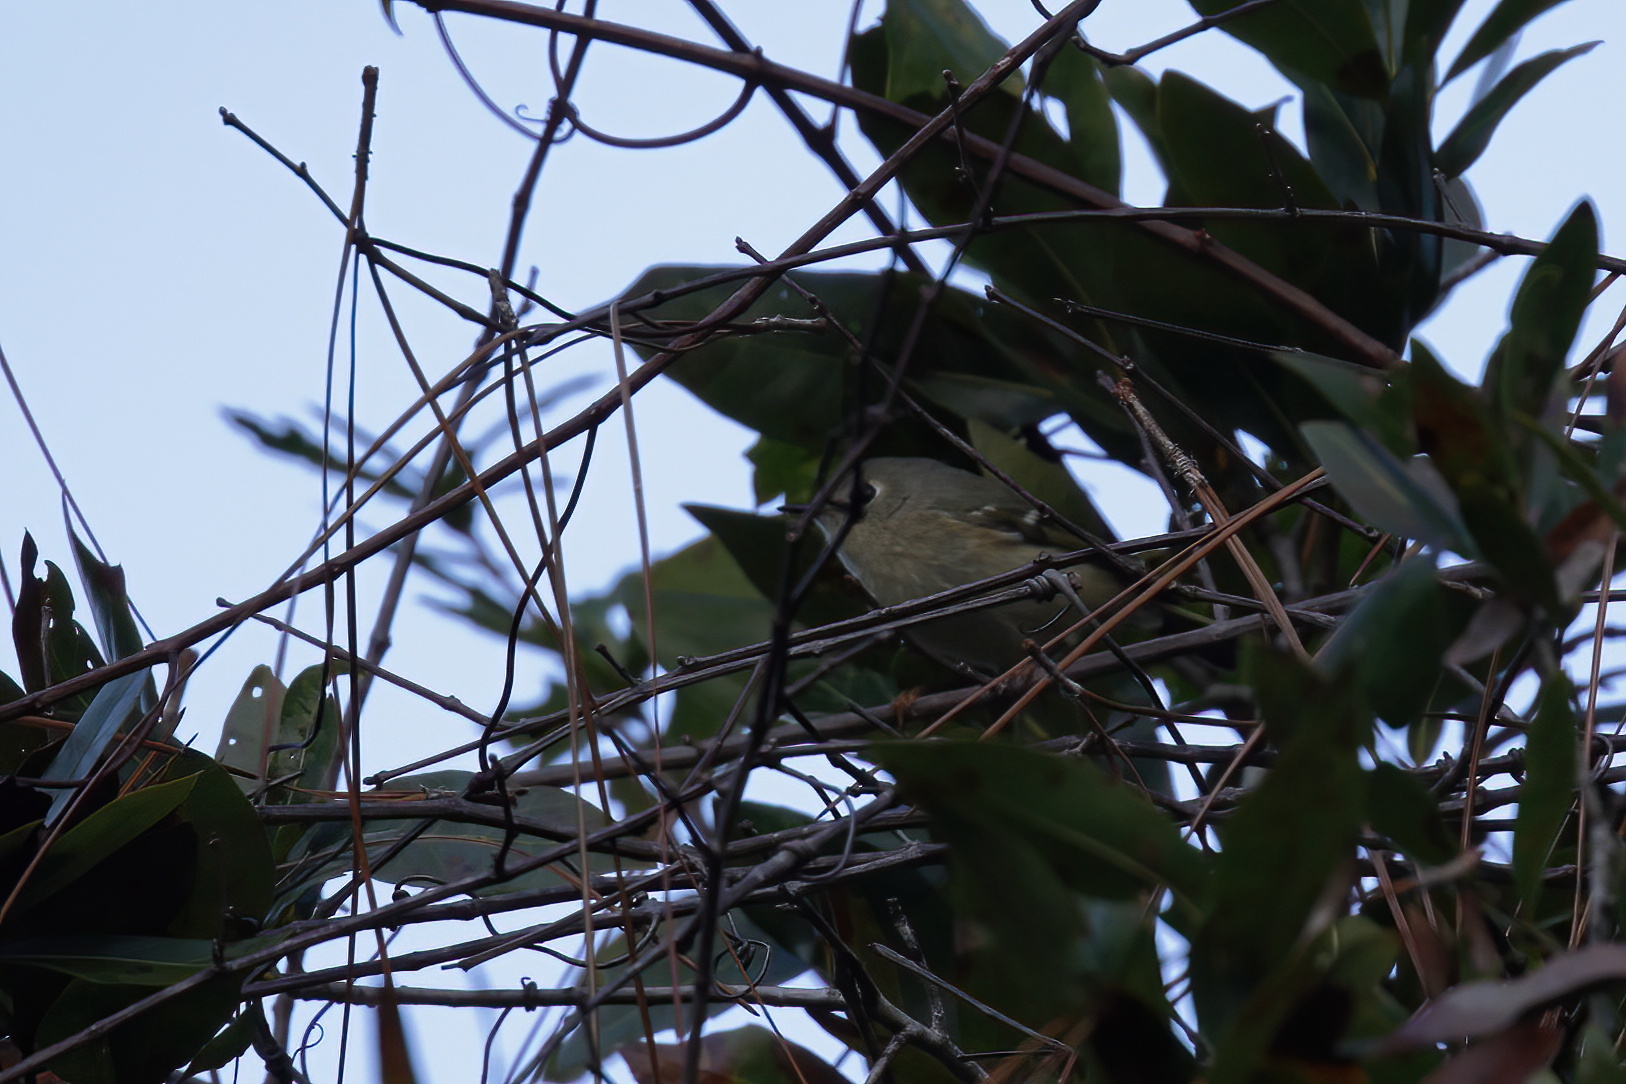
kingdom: Animalia
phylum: Chordata
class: Aves
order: Passeriformes
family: Regulidae
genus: Regulus
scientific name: Regulus calendula
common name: Ruby-crowned kinglet
